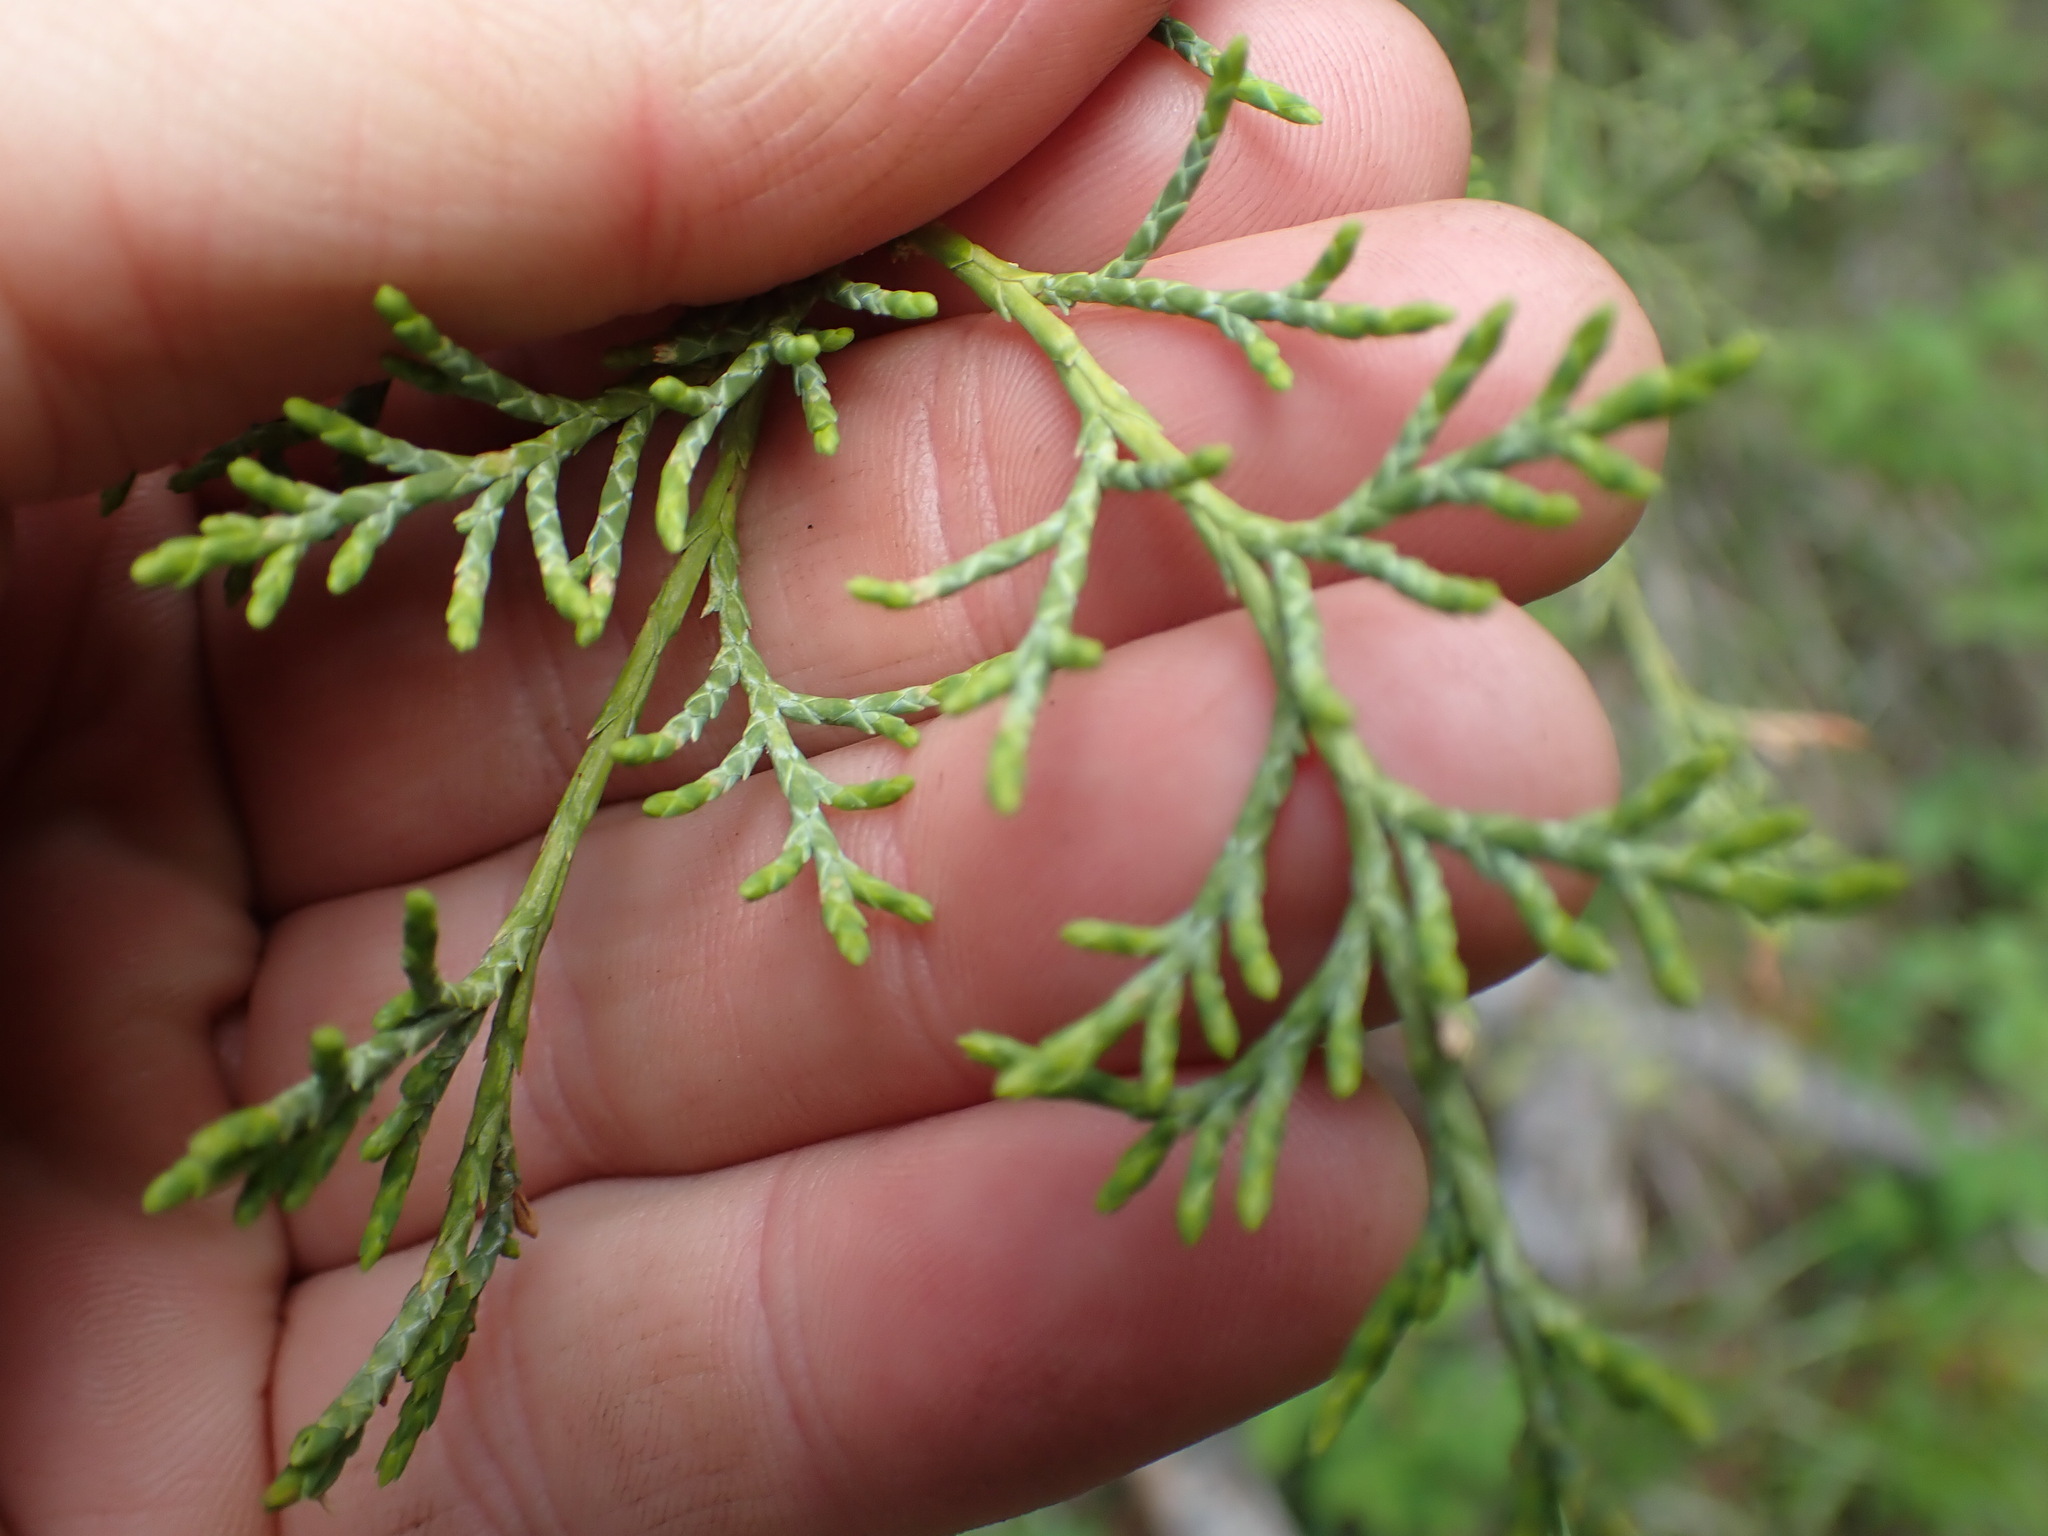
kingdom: Plantae
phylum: Tracheophyta
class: Pinopsida
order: Pinales
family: Cupressaceae
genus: Juniperus
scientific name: Juniperus scopulorum
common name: Rocky mountain juniper
